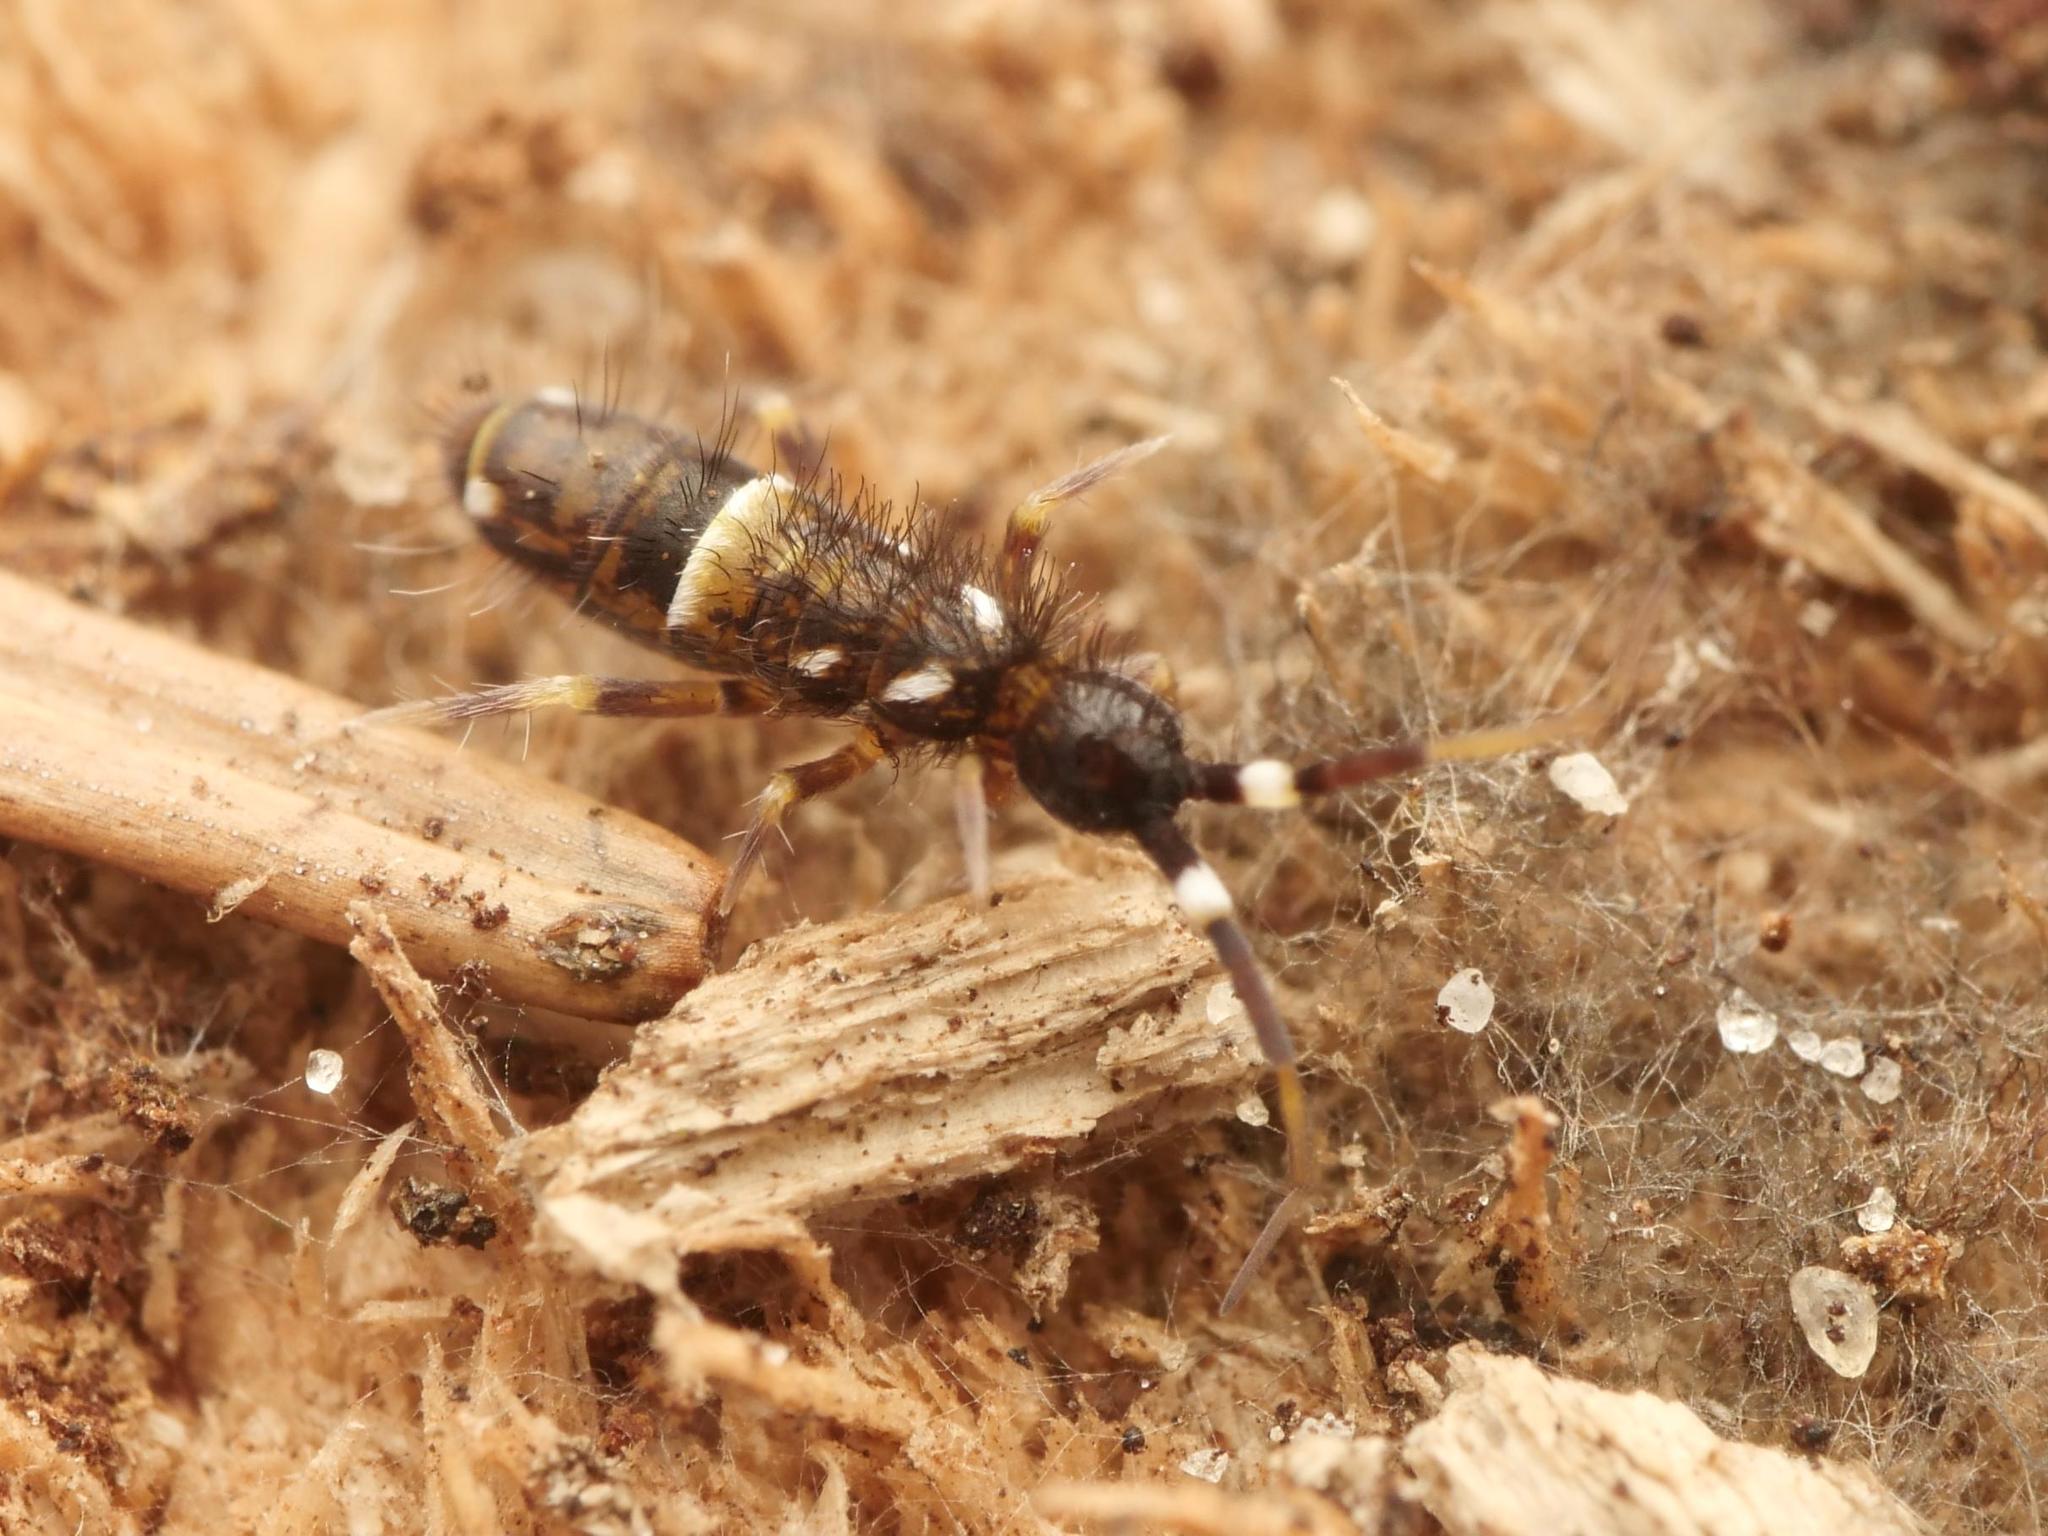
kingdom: Animalia
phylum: Arthropoda
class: Collembola
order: Entomobryomorpha
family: Orchesellidae
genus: Orchesella
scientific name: Orchesella cincta
